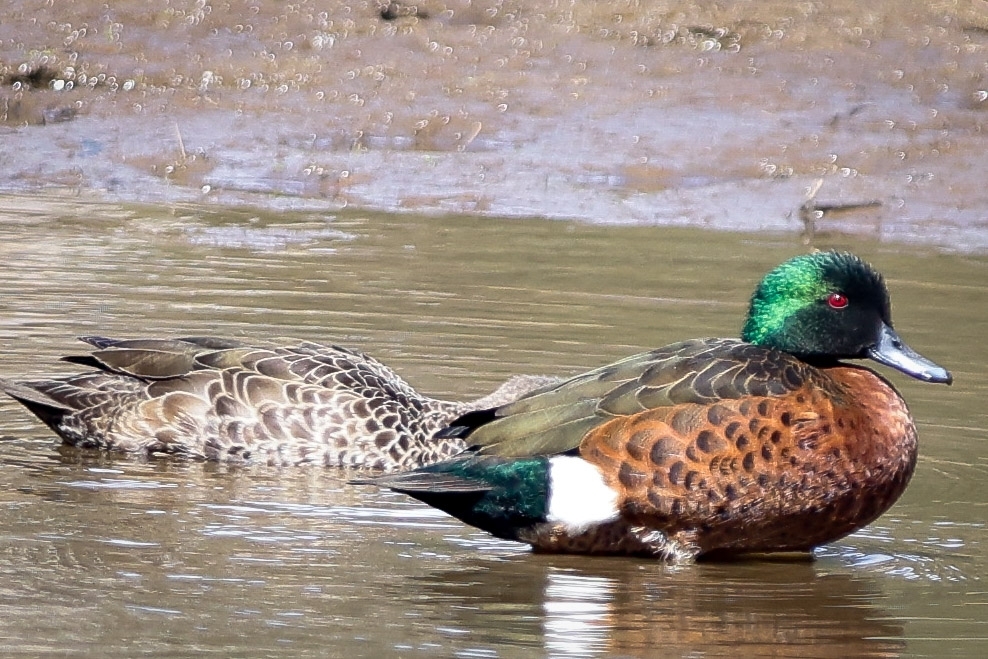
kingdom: Animalia
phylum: Chordata
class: Aves
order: Anseriformes
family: Anatidae
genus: Anas
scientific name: Anas castanea
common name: Chestnut teal
